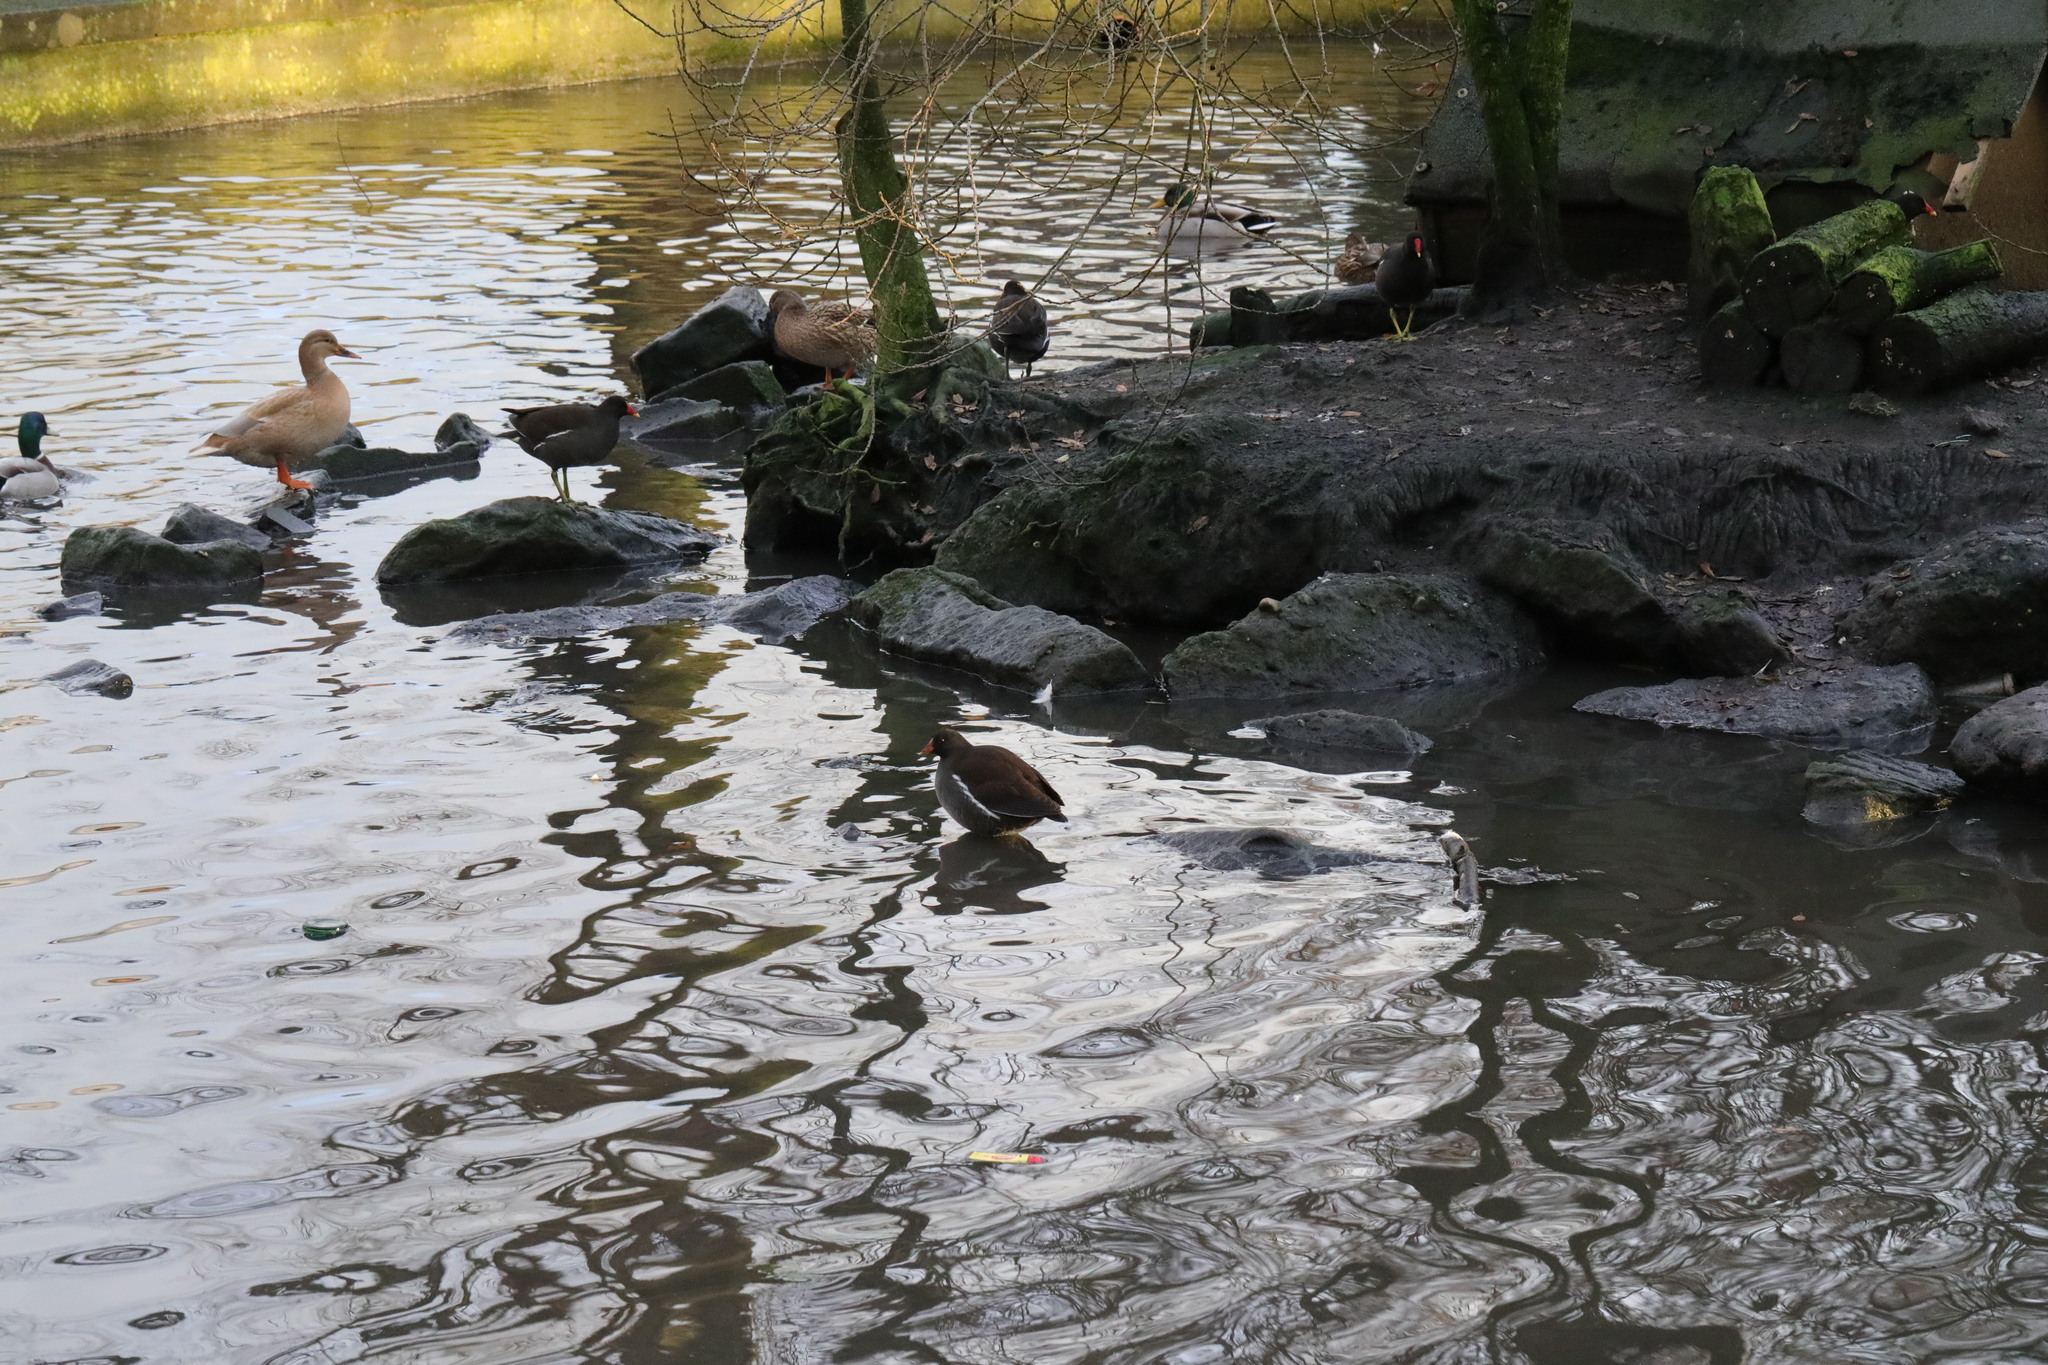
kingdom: Animalia
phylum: Chordata
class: Aves
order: Gruiformes
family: Rallidae
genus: Gallinula
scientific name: Gallinula chloropus
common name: Common moorhen
